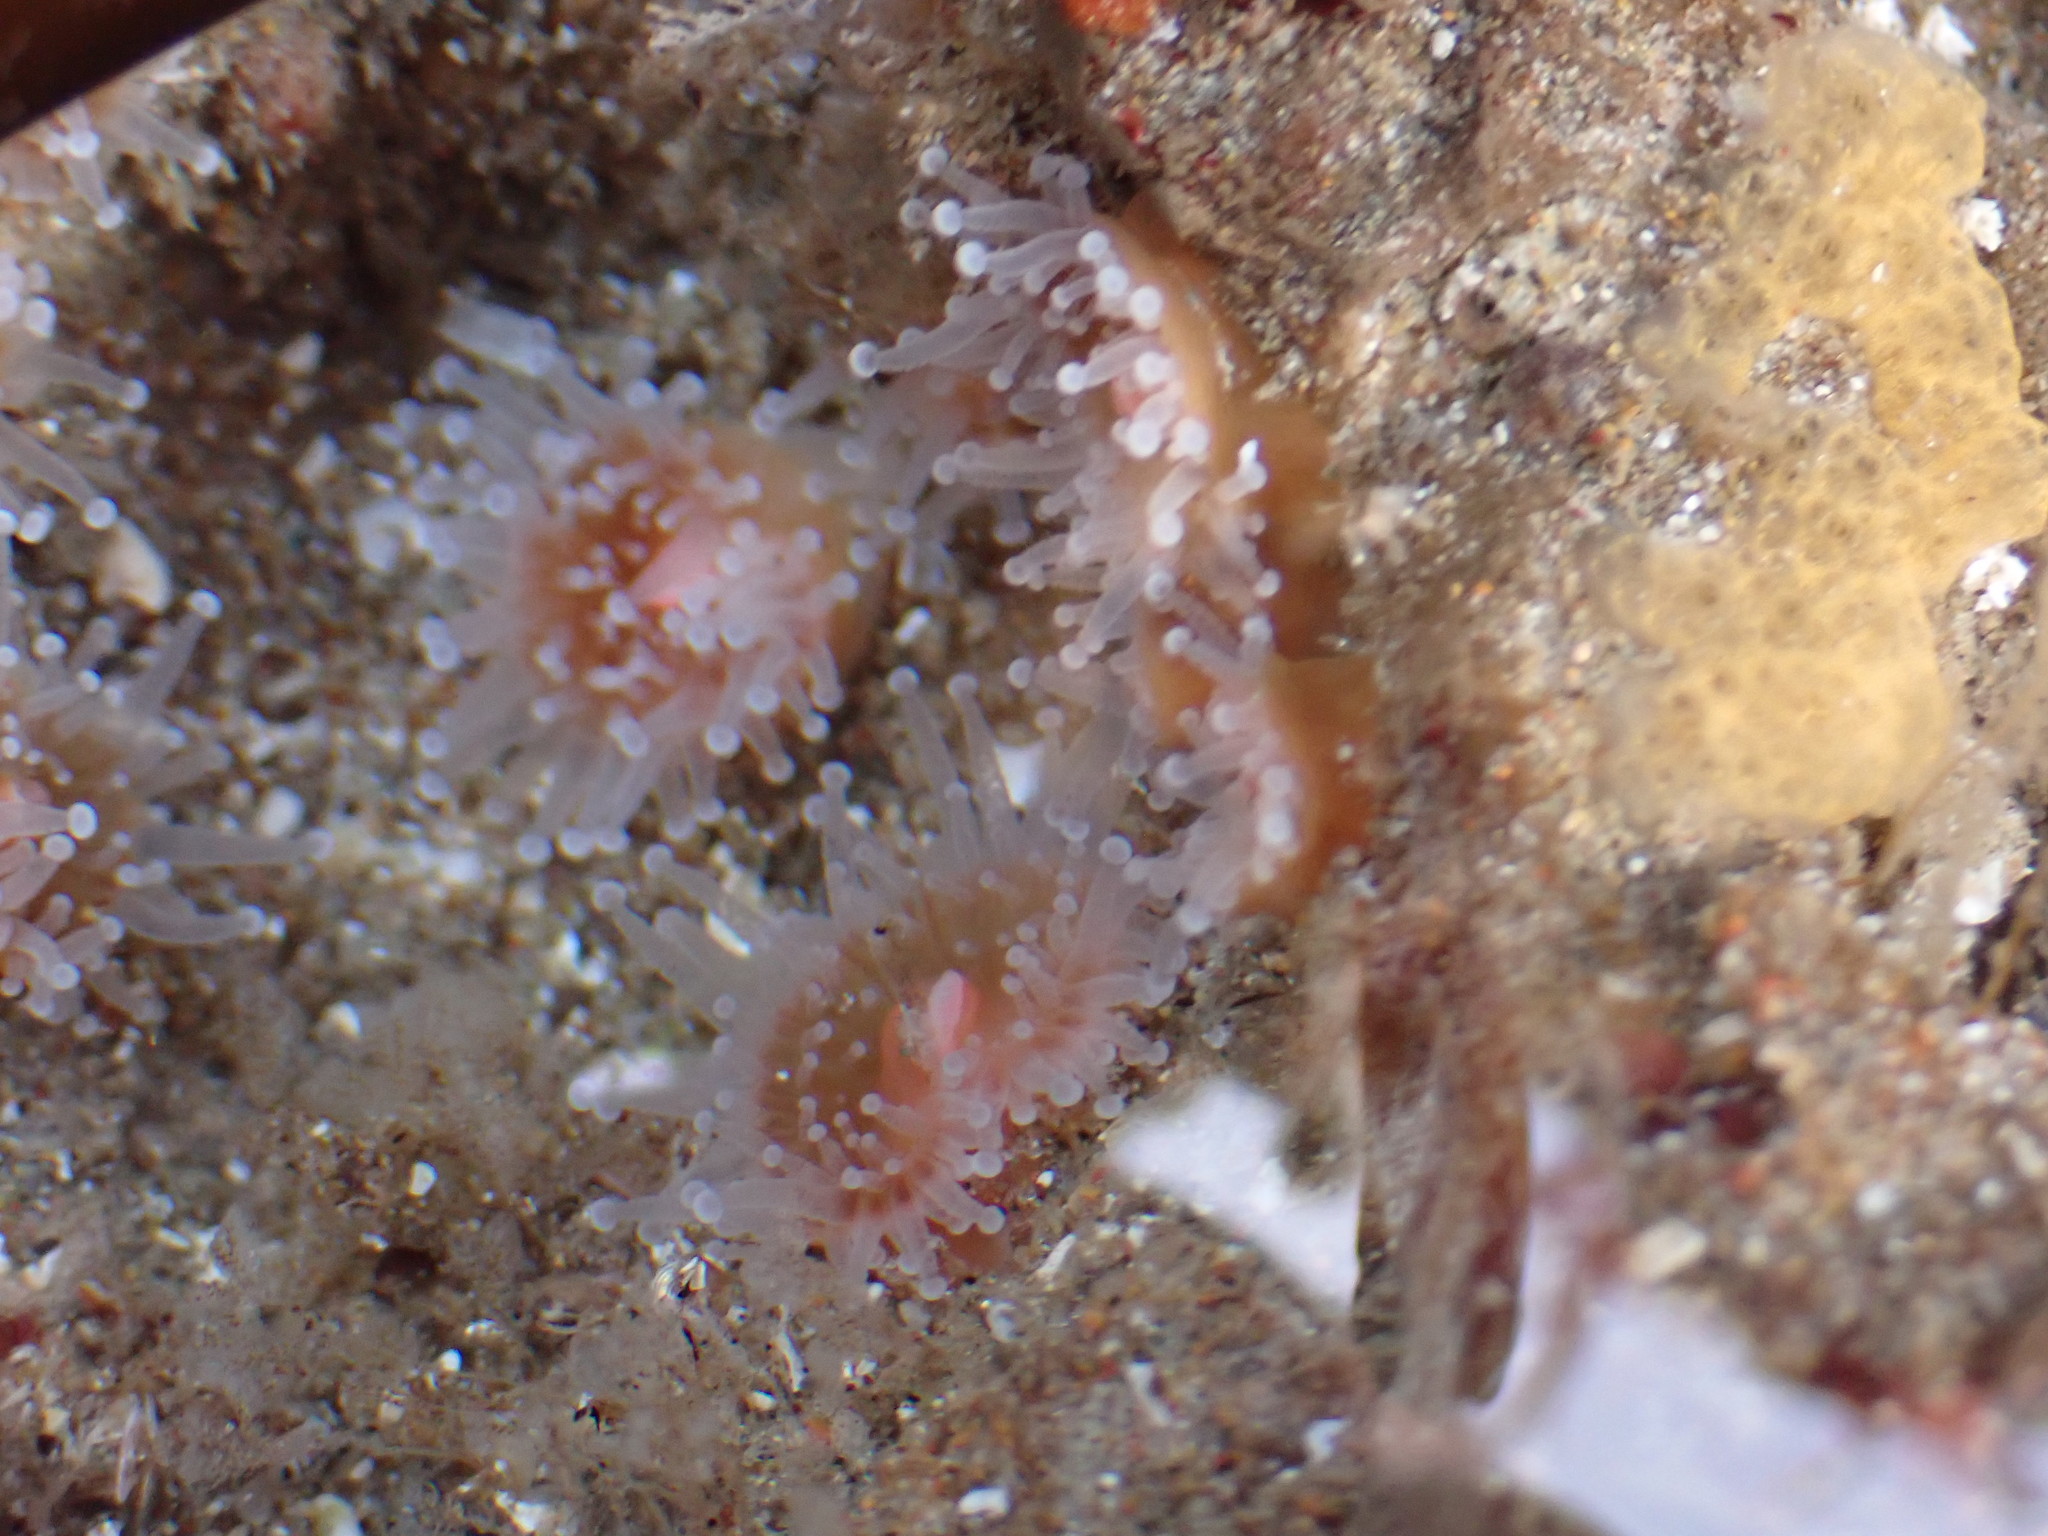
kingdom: Animalia
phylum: Cnidaria
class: Anthozoa
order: Corallimorpharia
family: Corallimorphidae
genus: Corynactis
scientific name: Corynactis californica
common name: Strawberry corallimorpharian
